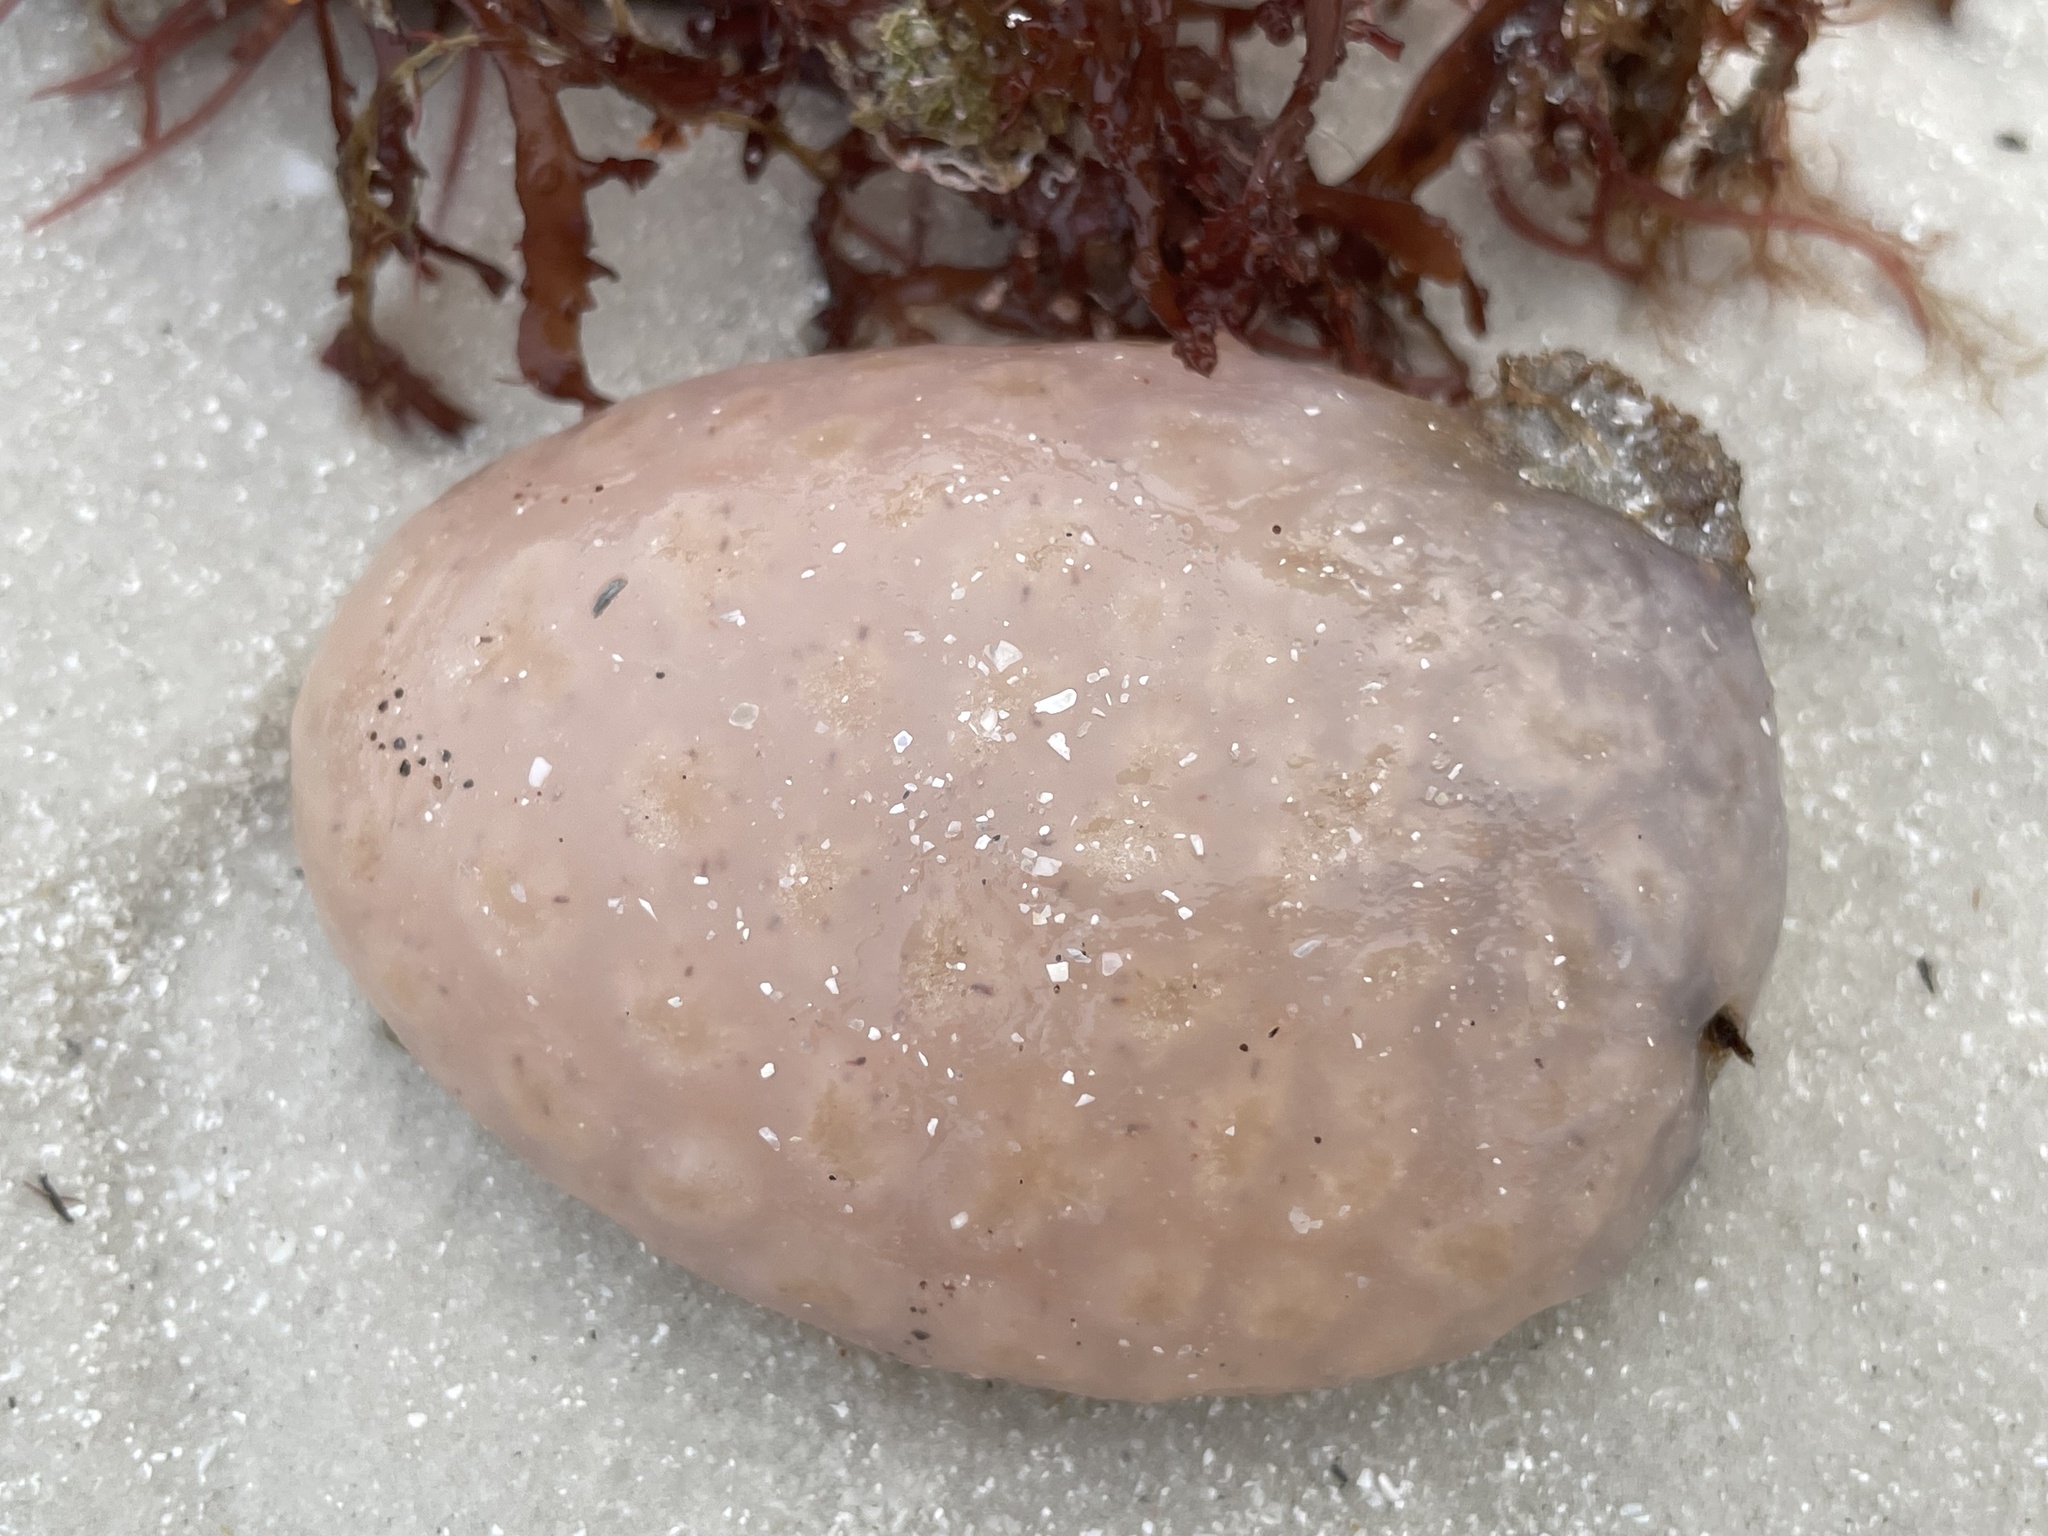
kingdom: Animalia
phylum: Chordata
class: Ascidiacea
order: Aplousobranchia
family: Polyclinidae
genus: Aplidium
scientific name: Aplidium stellatum
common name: Atlantic sea pork
